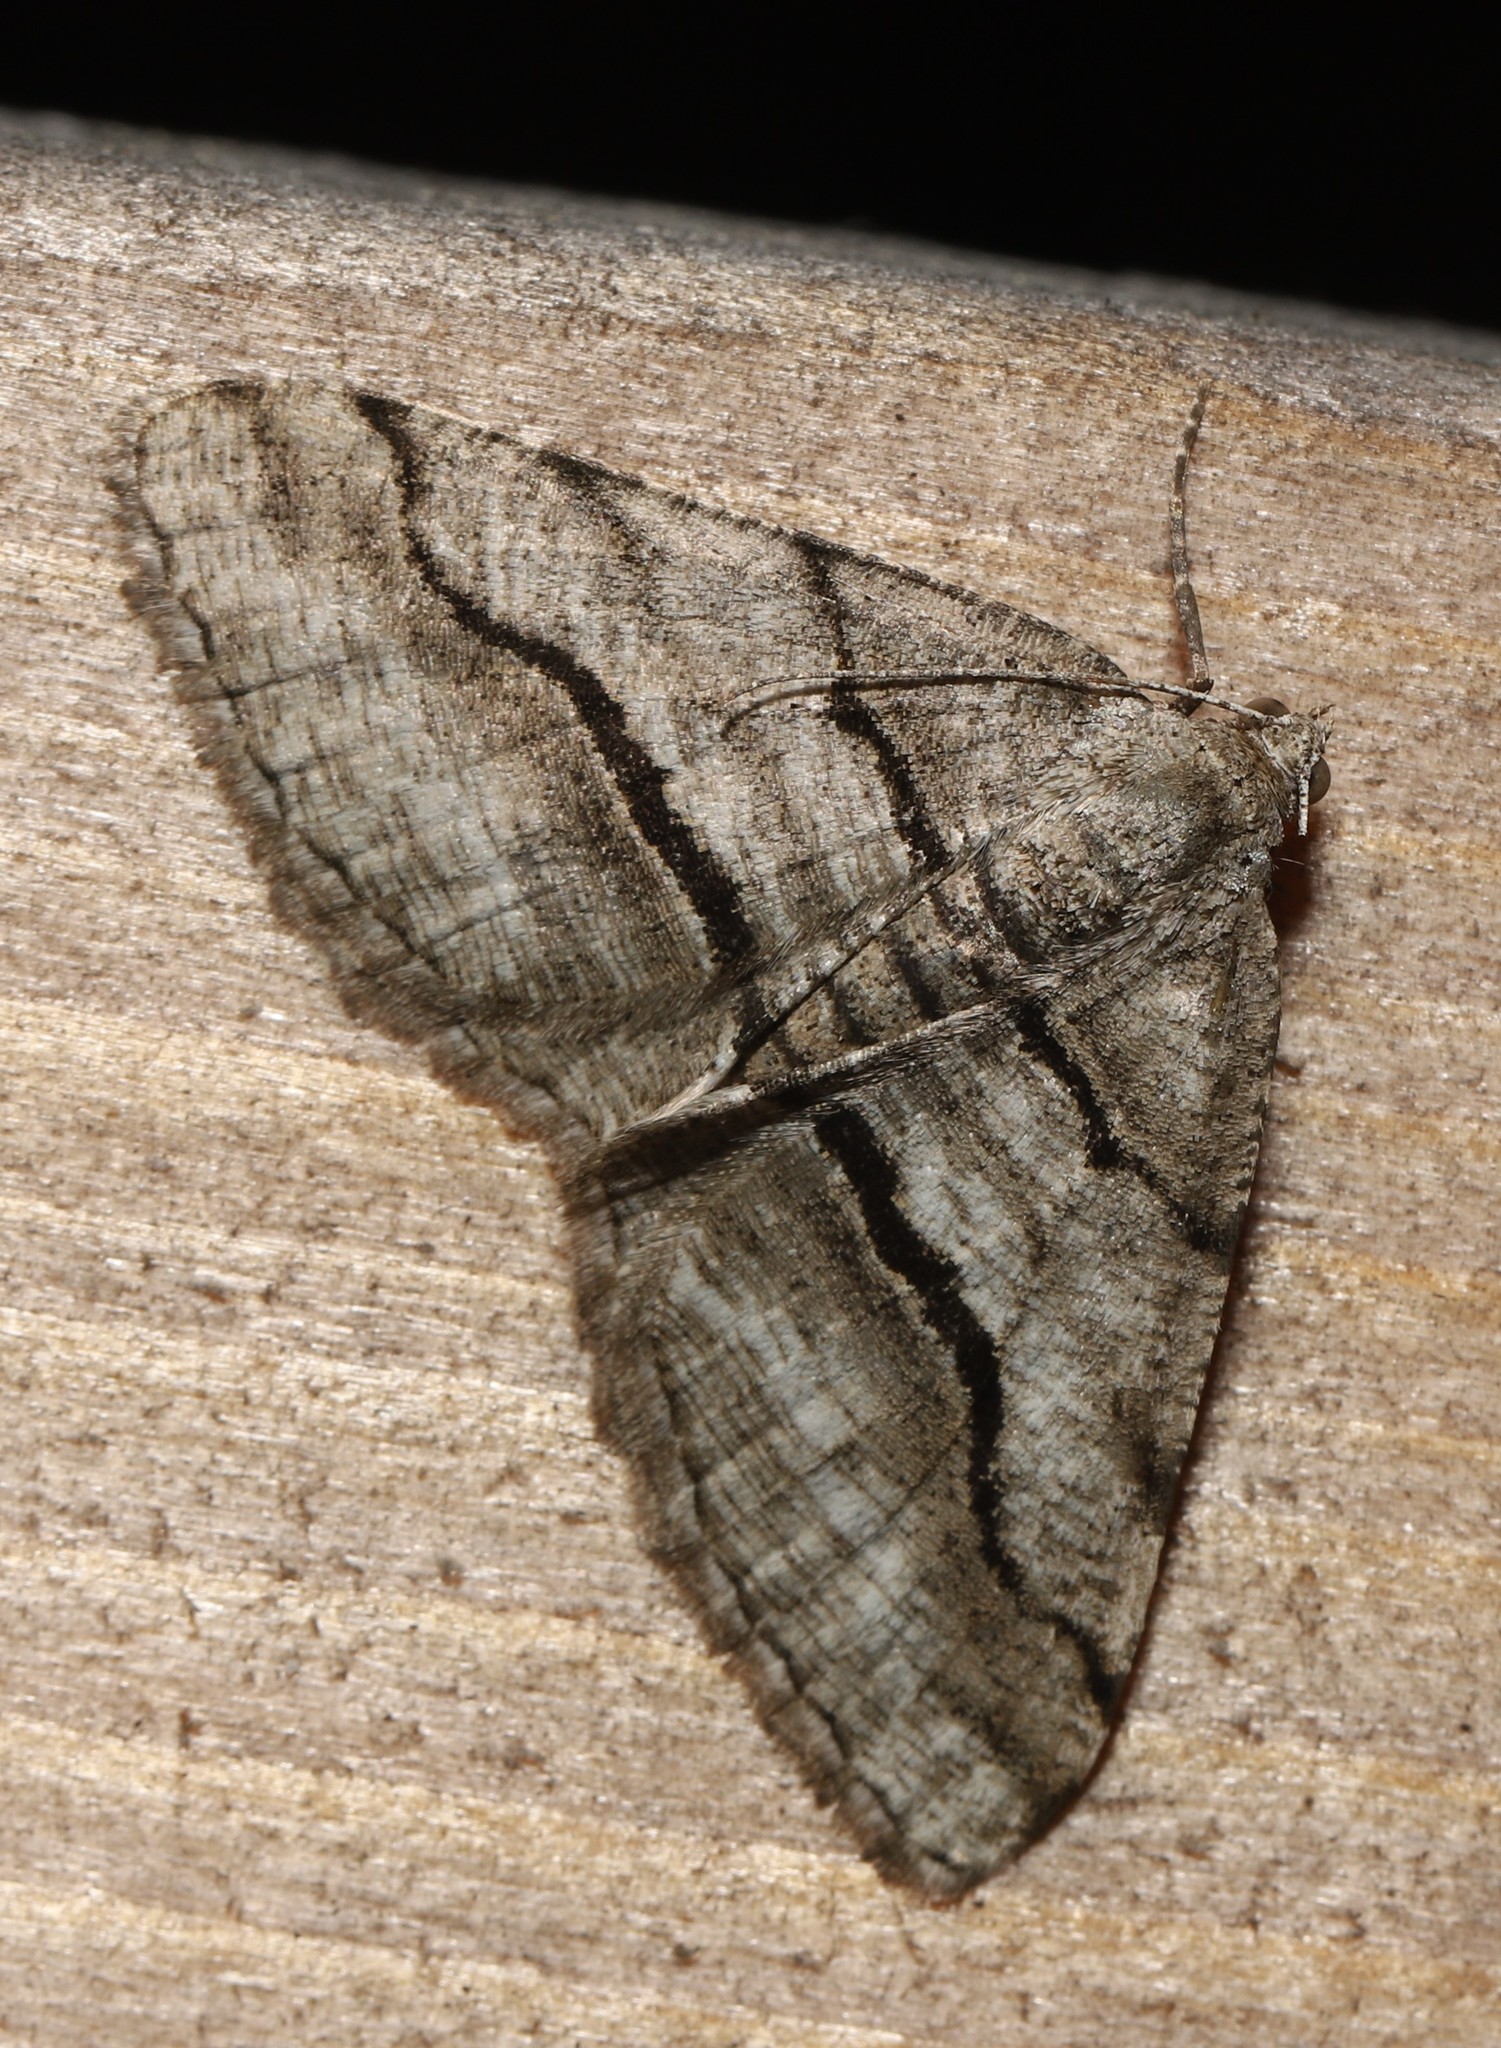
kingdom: Animalia
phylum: Arthropoda
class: Insecta
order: Lepidoptera
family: Geometridae
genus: Digrammia
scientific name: Digrammia continuata
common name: Curve-lined angle
